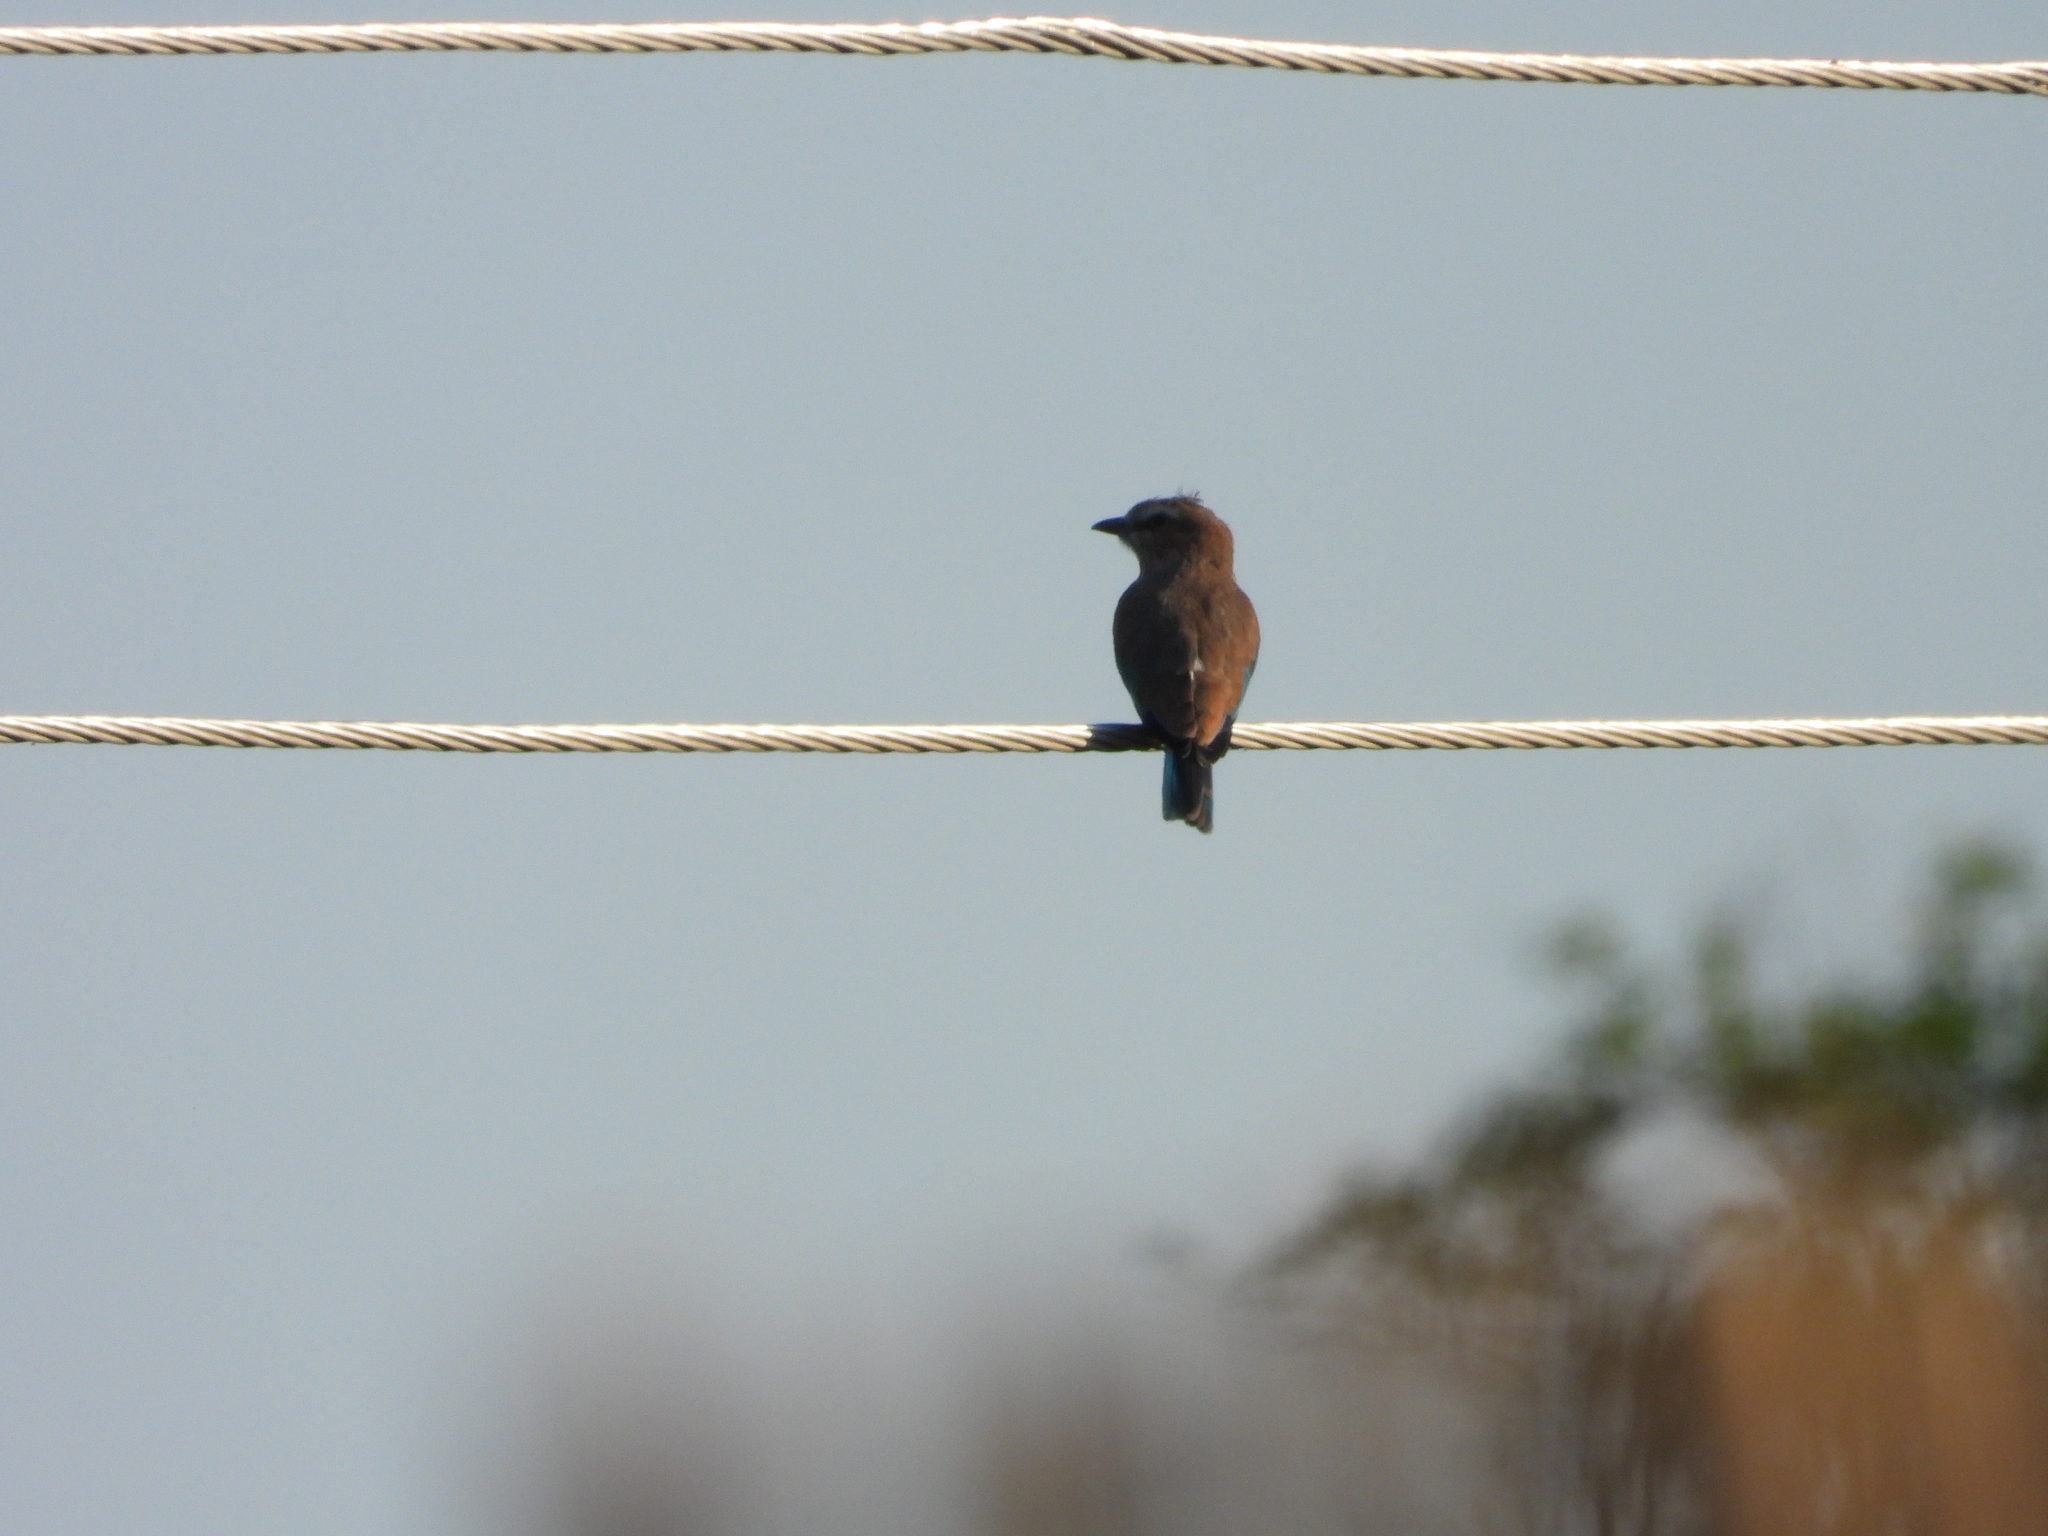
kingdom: Animalia
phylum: Chordata
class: Aves
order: Coraciiformes
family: Coraciidae
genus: Coracias
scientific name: Coracias caudatus
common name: Lilac-breasted roller
